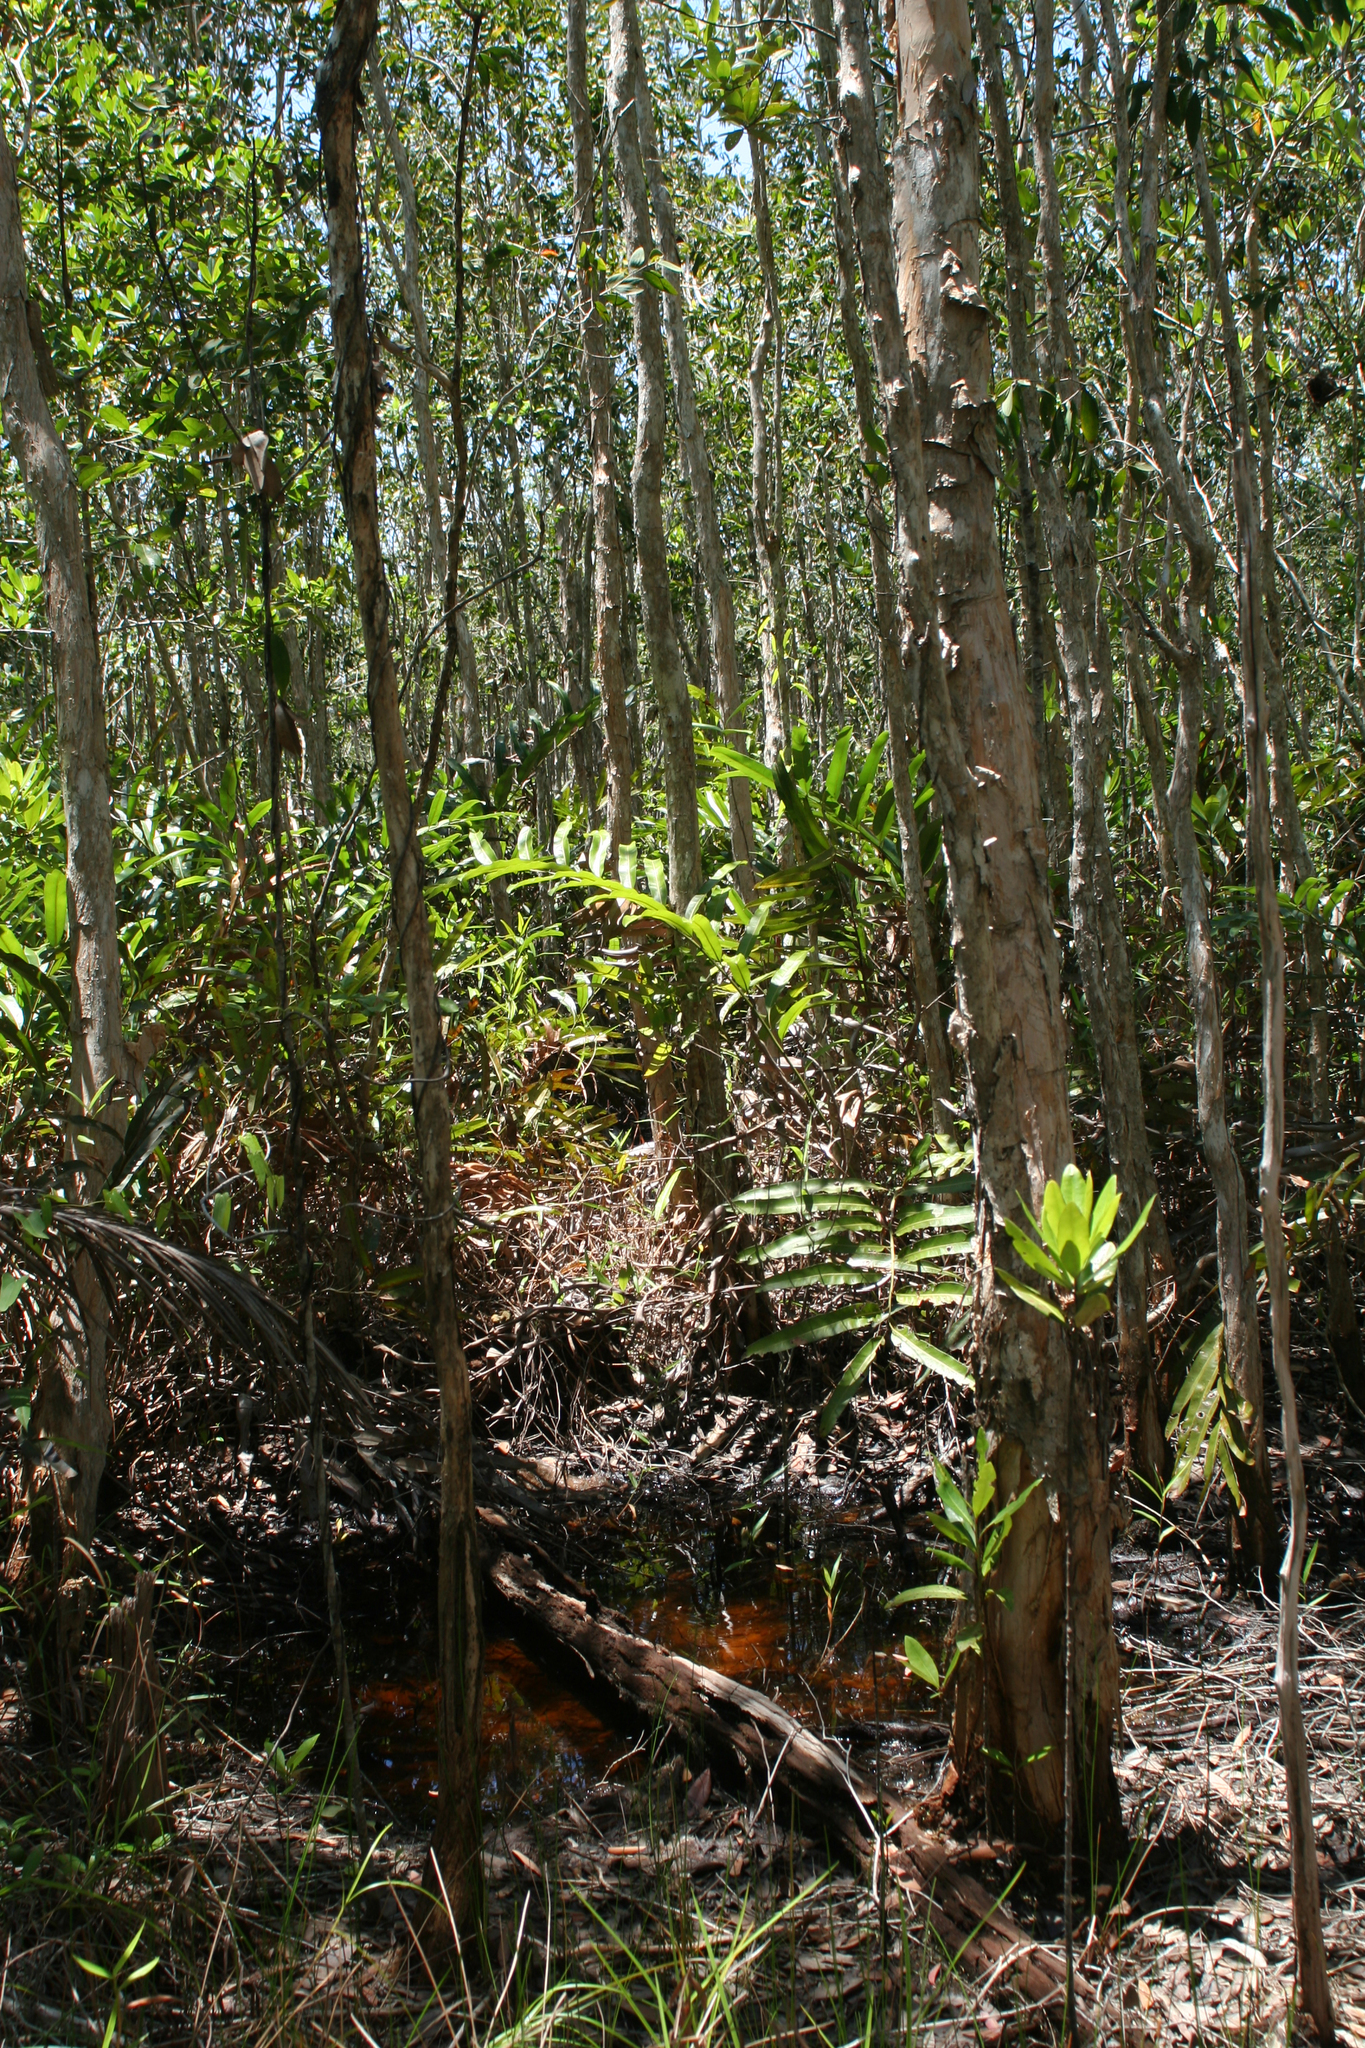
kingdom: Plantae
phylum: Tracheophyta
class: Magnoliopsida
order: Myrtales
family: Myrtaceae
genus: Melaleuca
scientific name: Melaleuca cajuputi
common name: Cajuput
